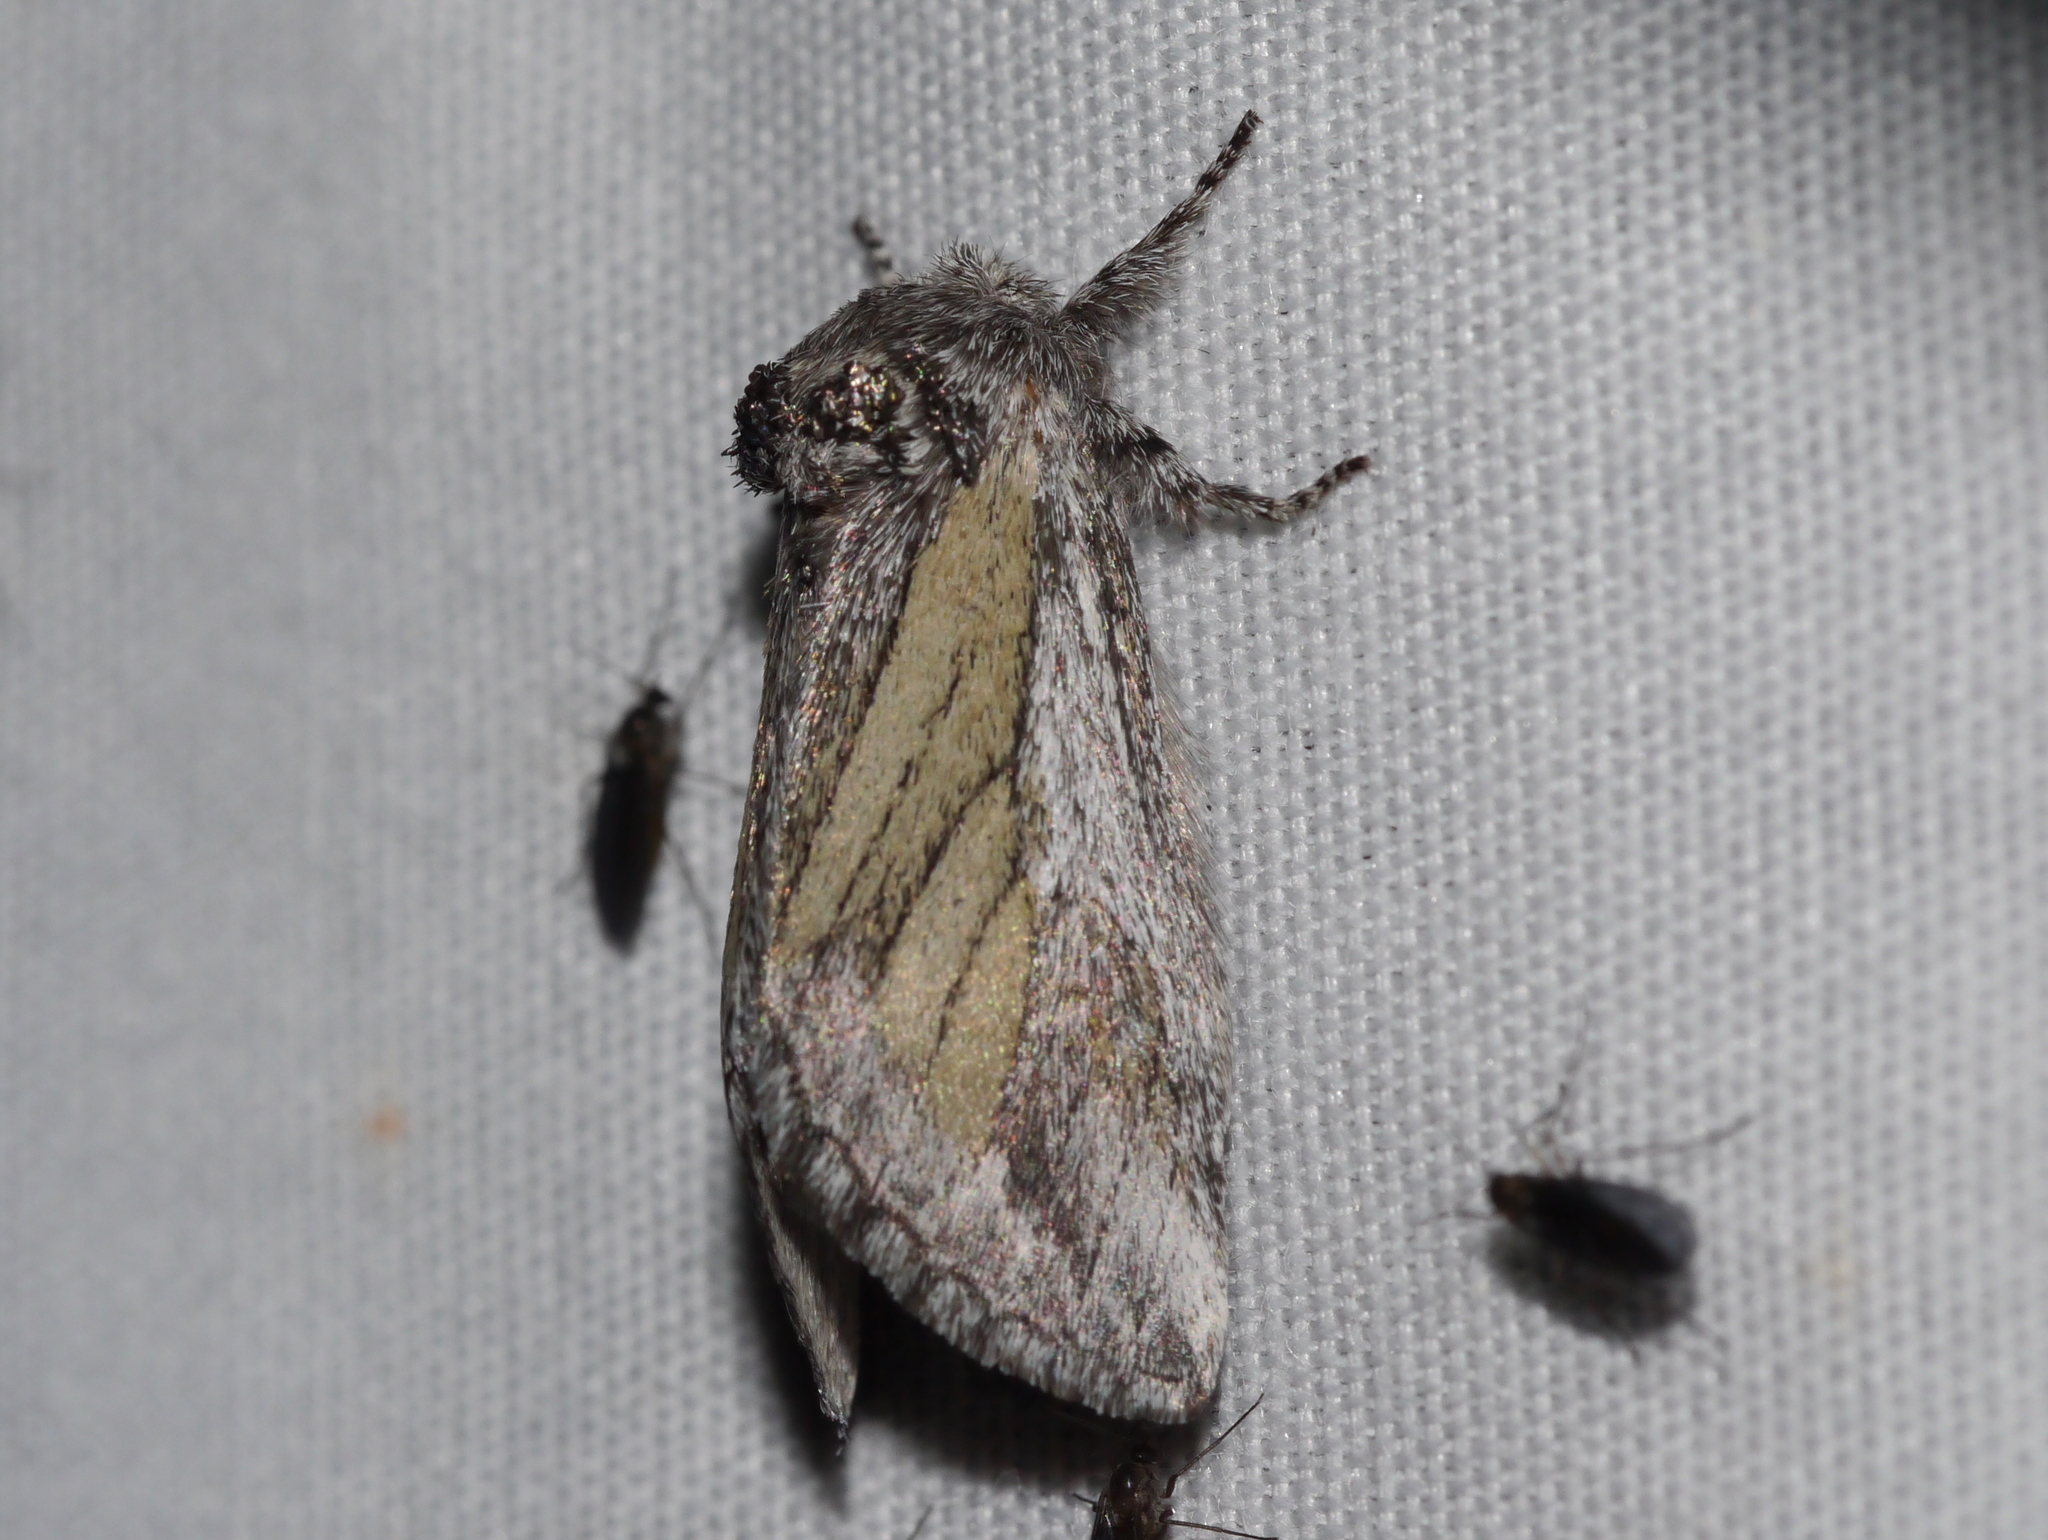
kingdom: Animalia
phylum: Arthropoda
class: Insecta
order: Lepidoptera
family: Notodontidae
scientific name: Notodontidae
